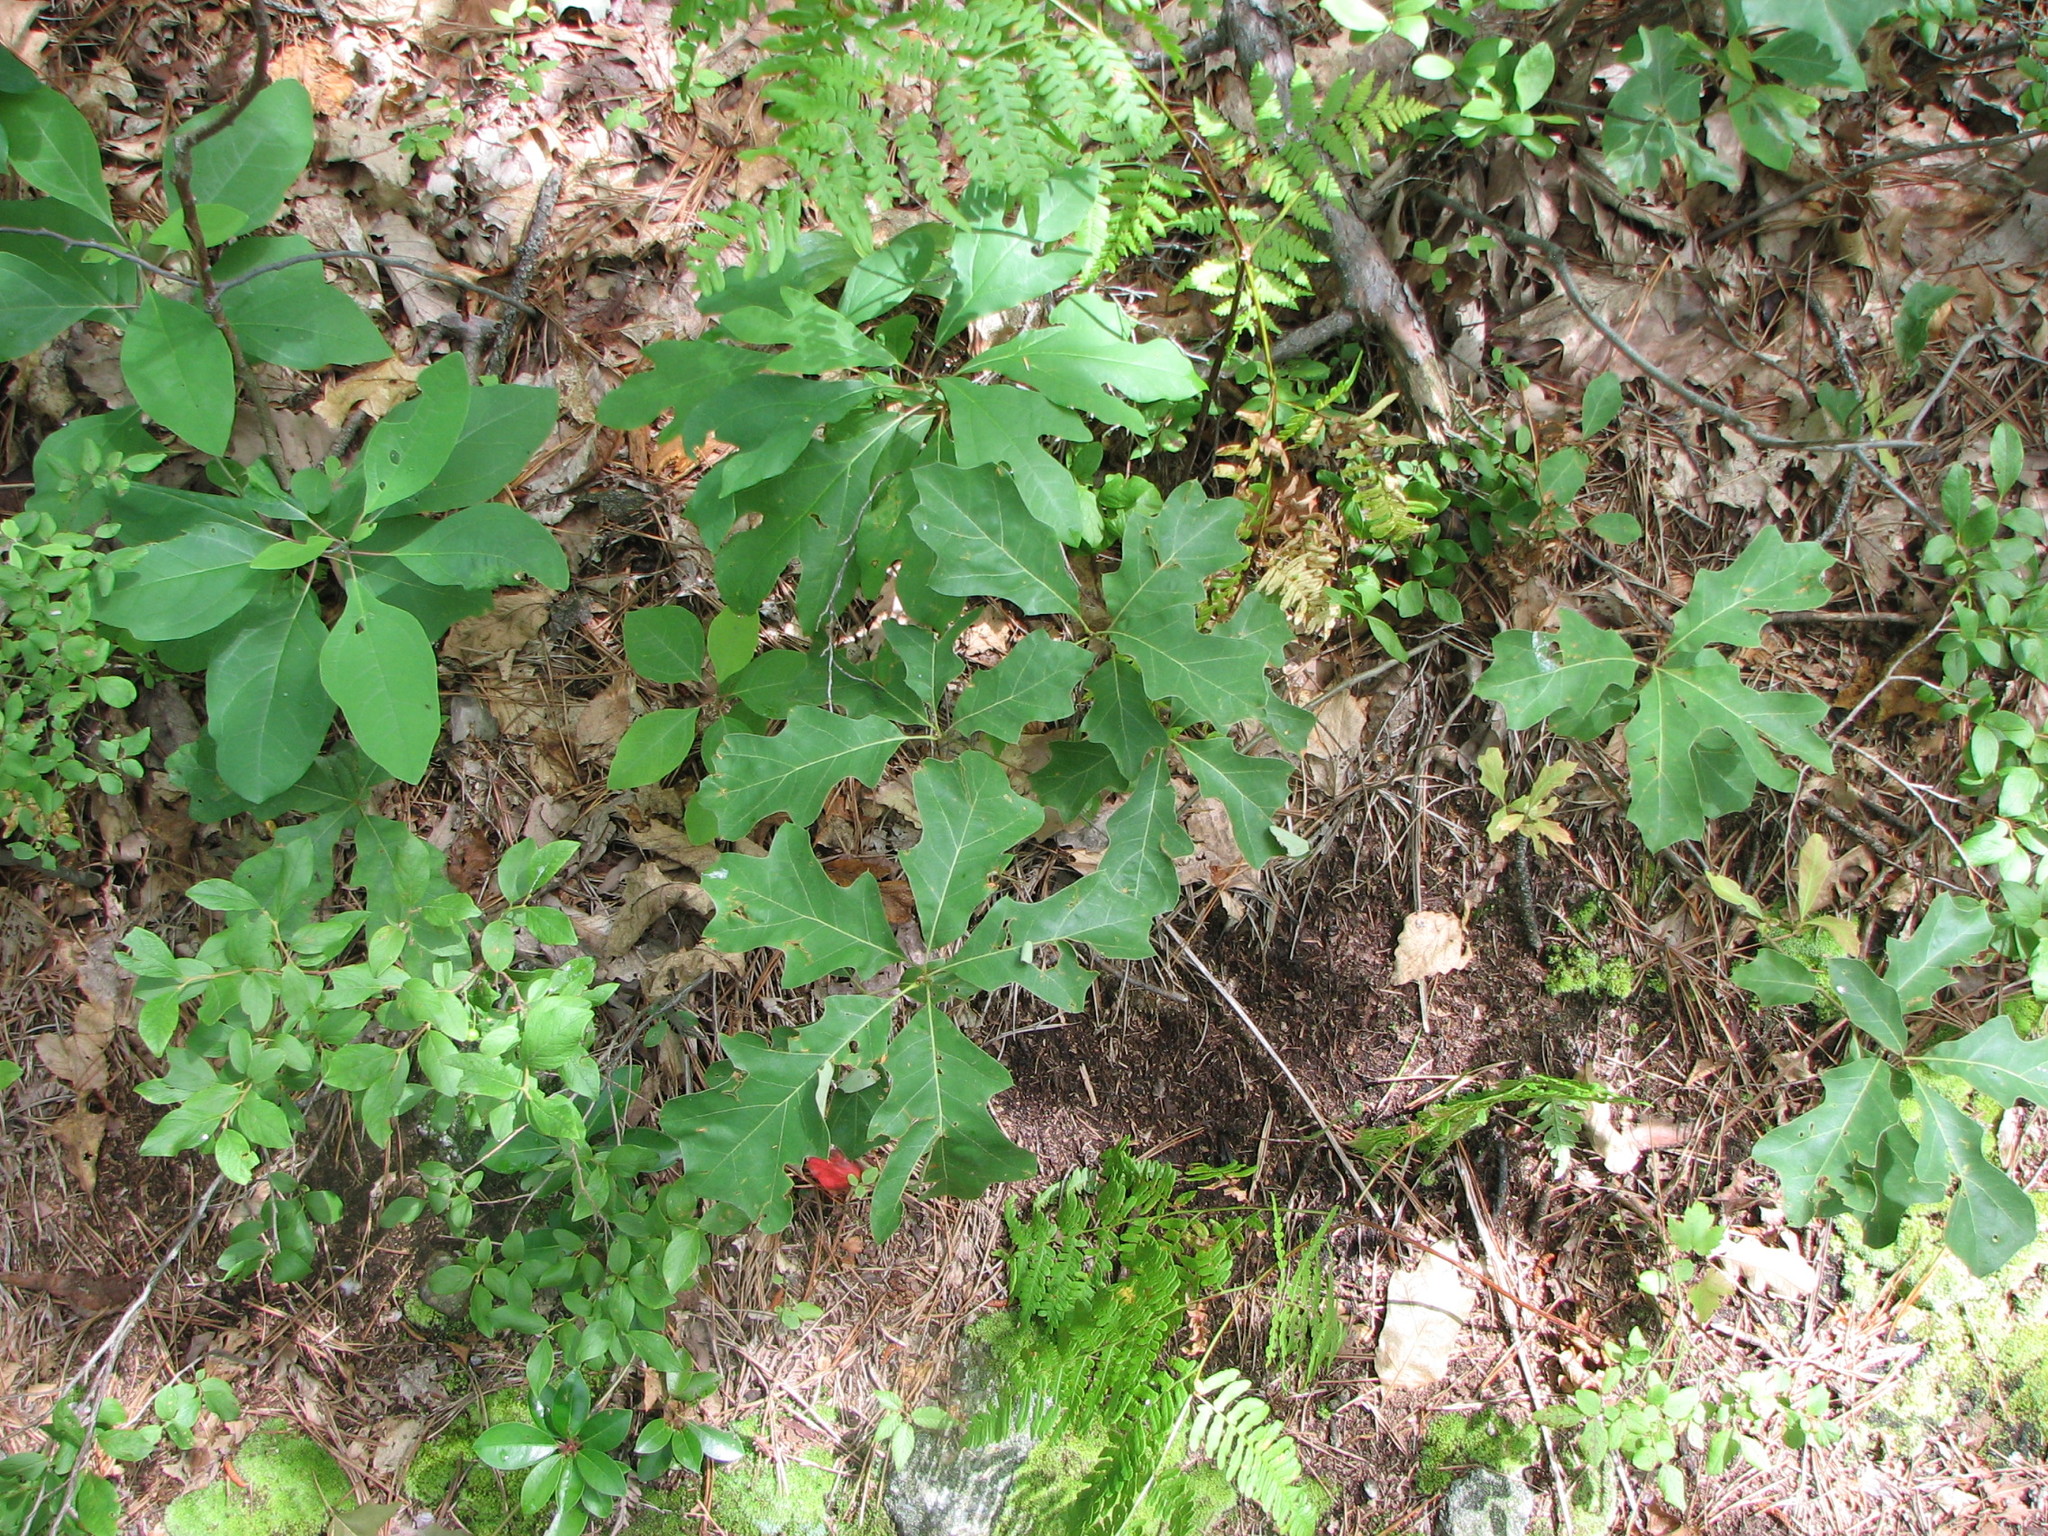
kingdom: Plantae
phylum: Tracheophyta
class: Magnoliopsida
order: Fagales
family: Fagaceae
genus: Quercus
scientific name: Quercus ilicifolia
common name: Bear oak
